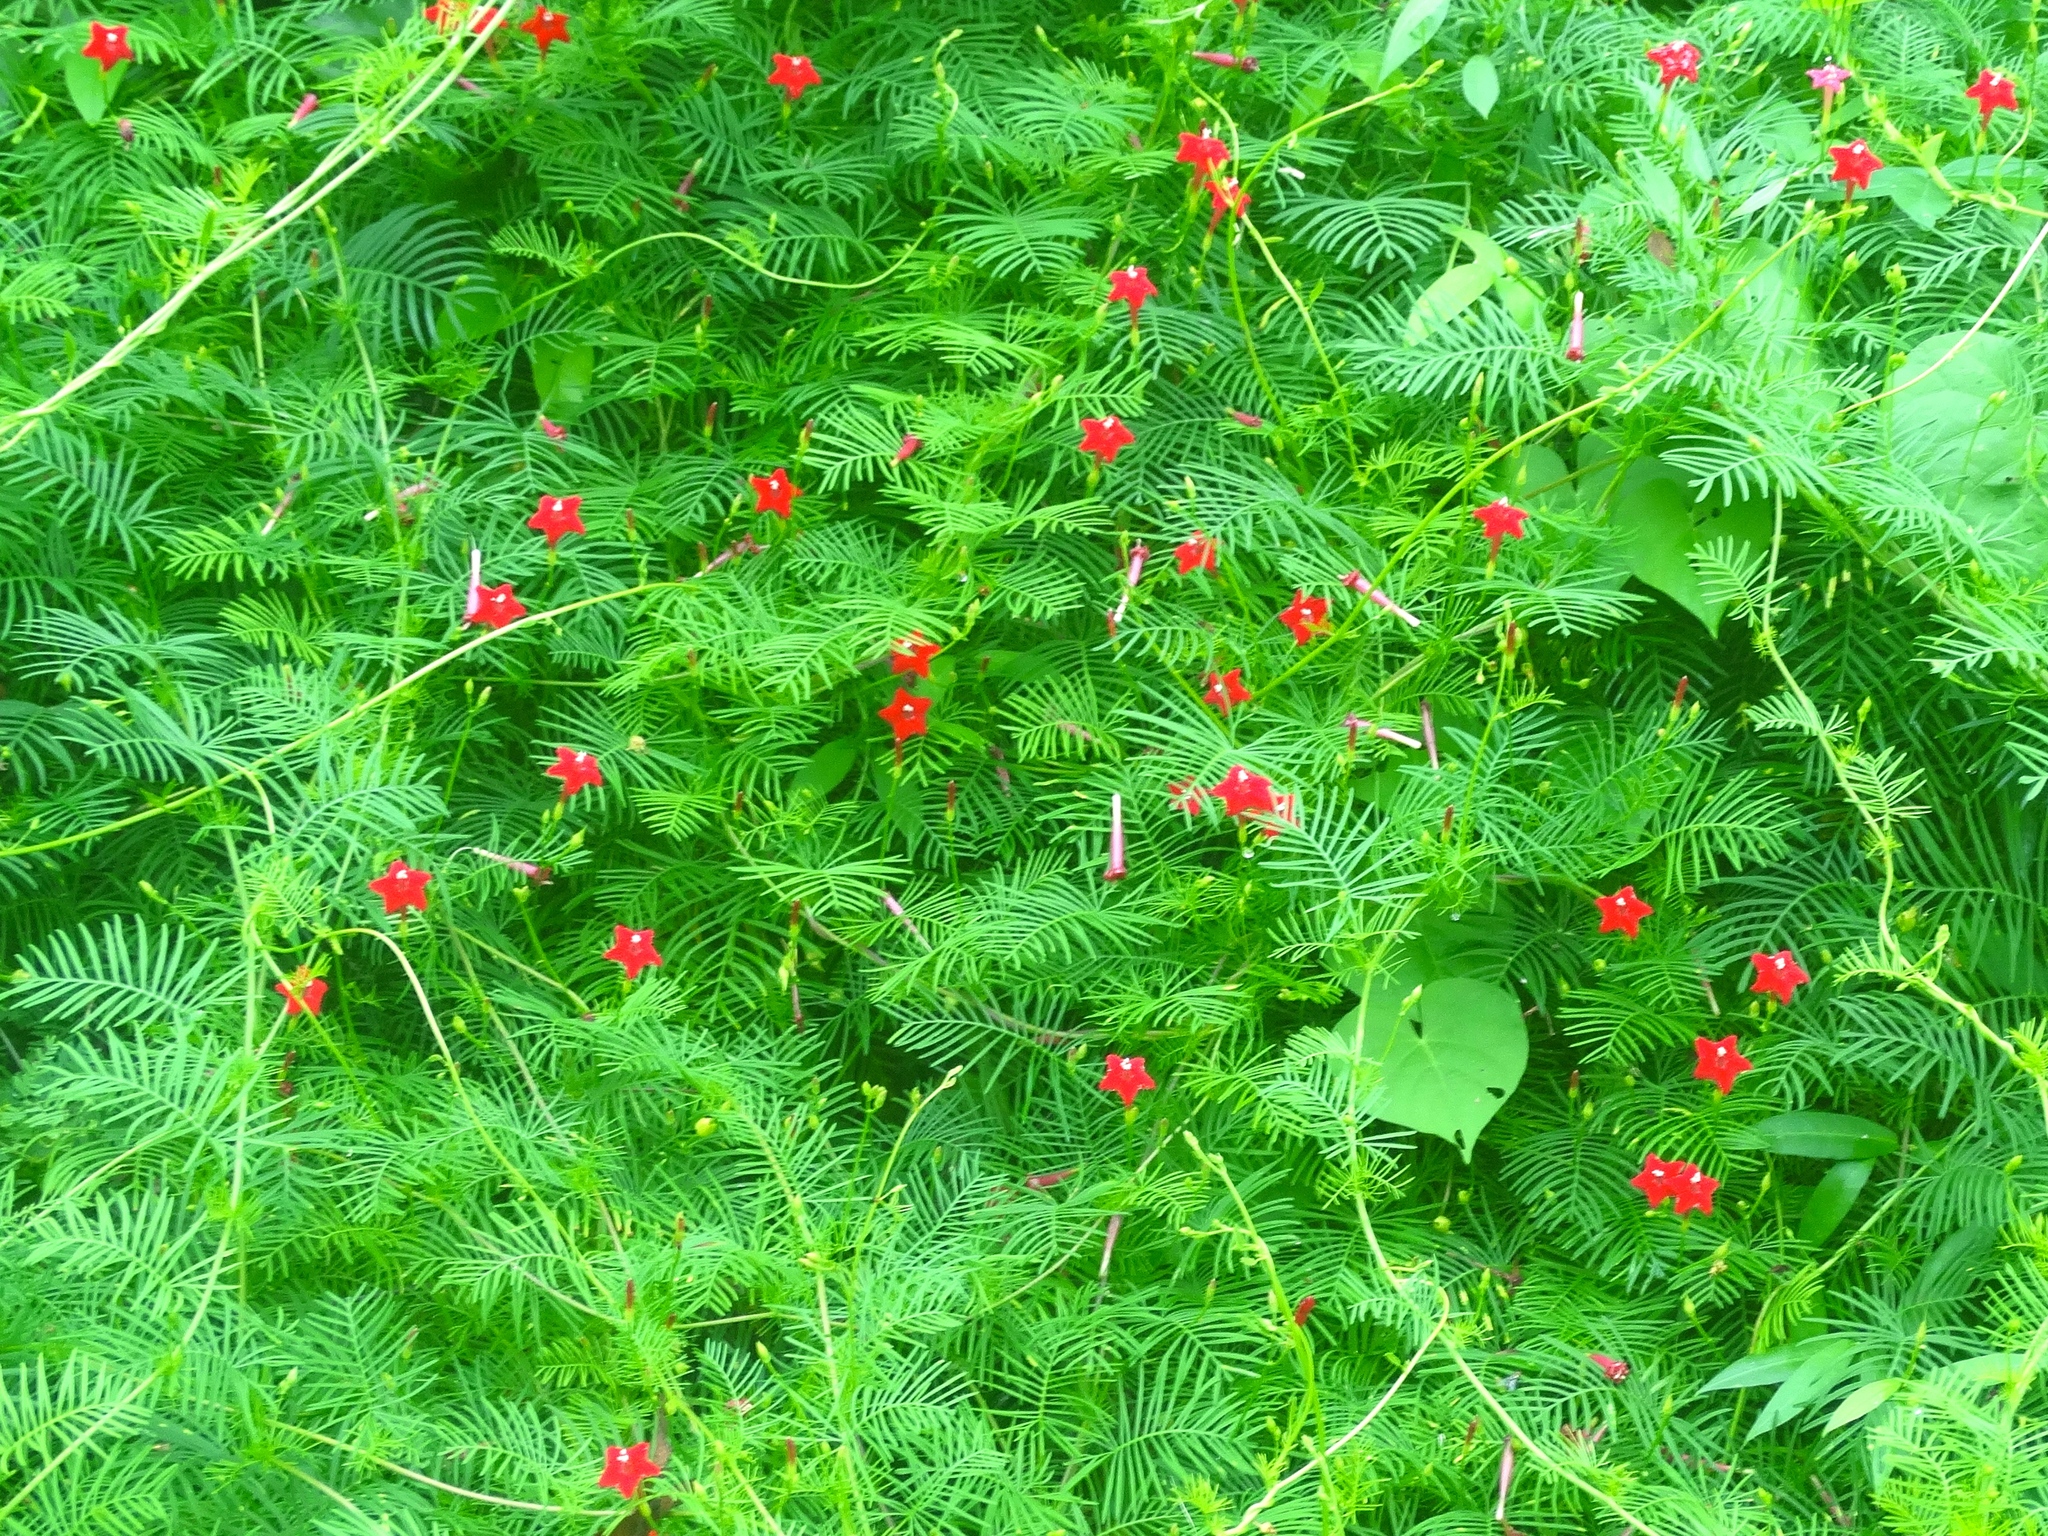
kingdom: Plantae
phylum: Tracheophyta
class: Magnoliopsida
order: Solanales
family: Convolvulaceae
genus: Ipomoea
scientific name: Ipomoea quamoclit
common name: Cypress vine
